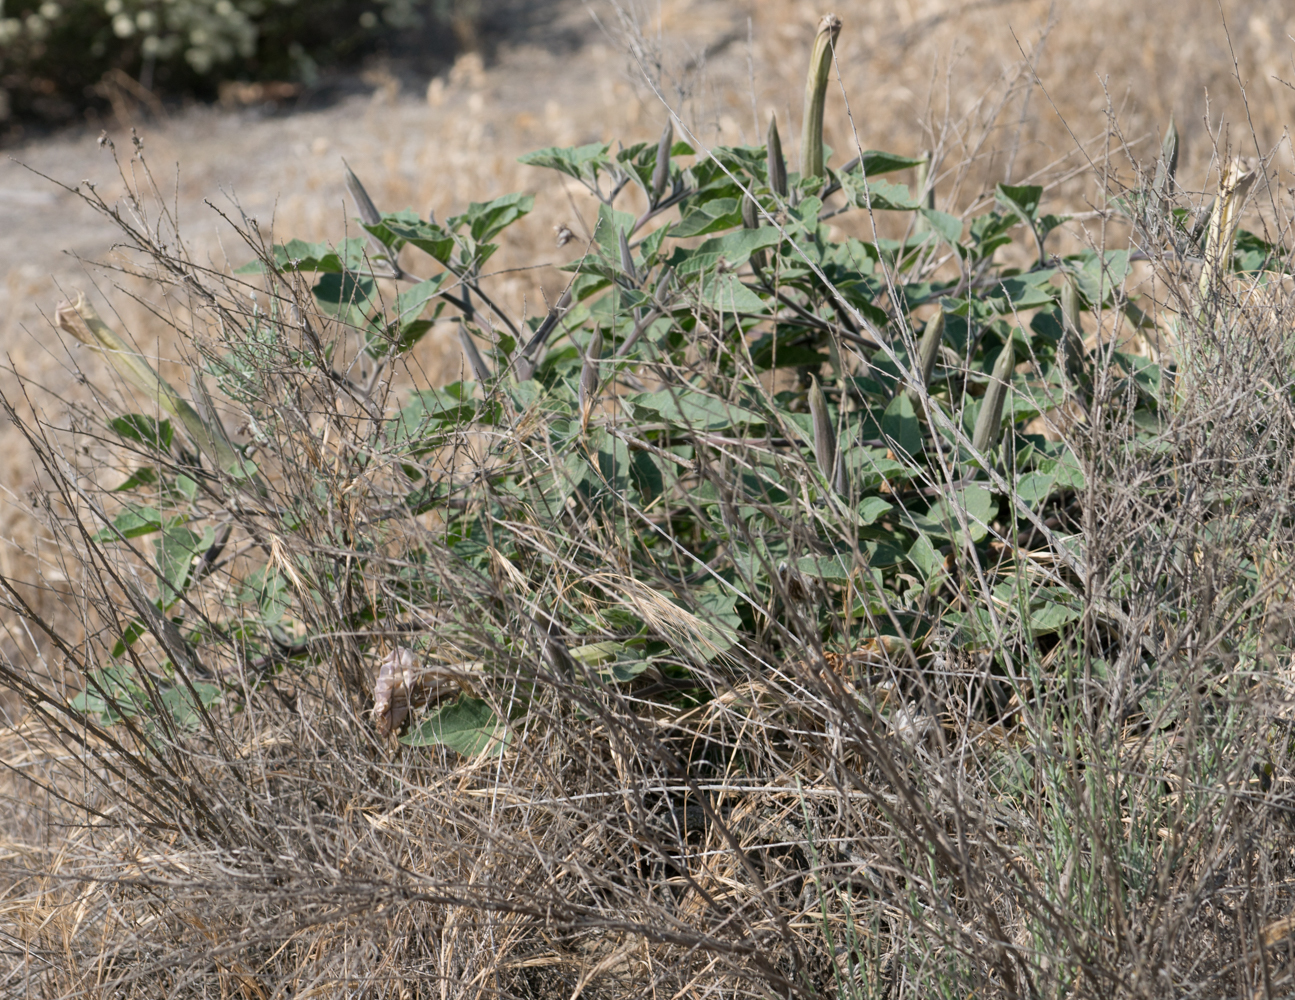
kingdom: Plantae
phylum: Tracheophyta
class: Magnoliopsida
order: Solanales
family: Solanaceae
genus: Datura
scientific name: Datura wrightii
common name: Sacred thorn-apple
